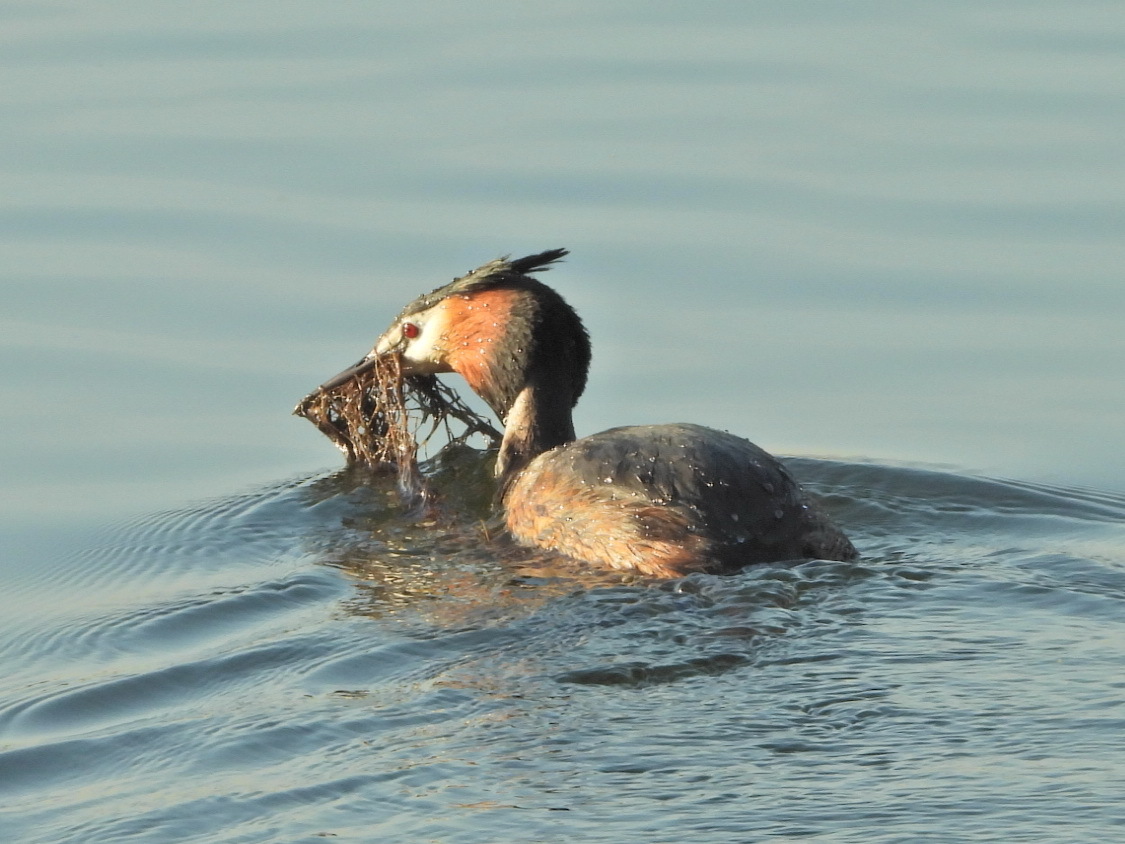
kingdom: Animalia
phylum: Chordata
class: Aves
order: Podicipediformes
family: Podicipedidae
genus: Podiceps
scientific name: Podiceps cristatus
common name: Great crested grebe
